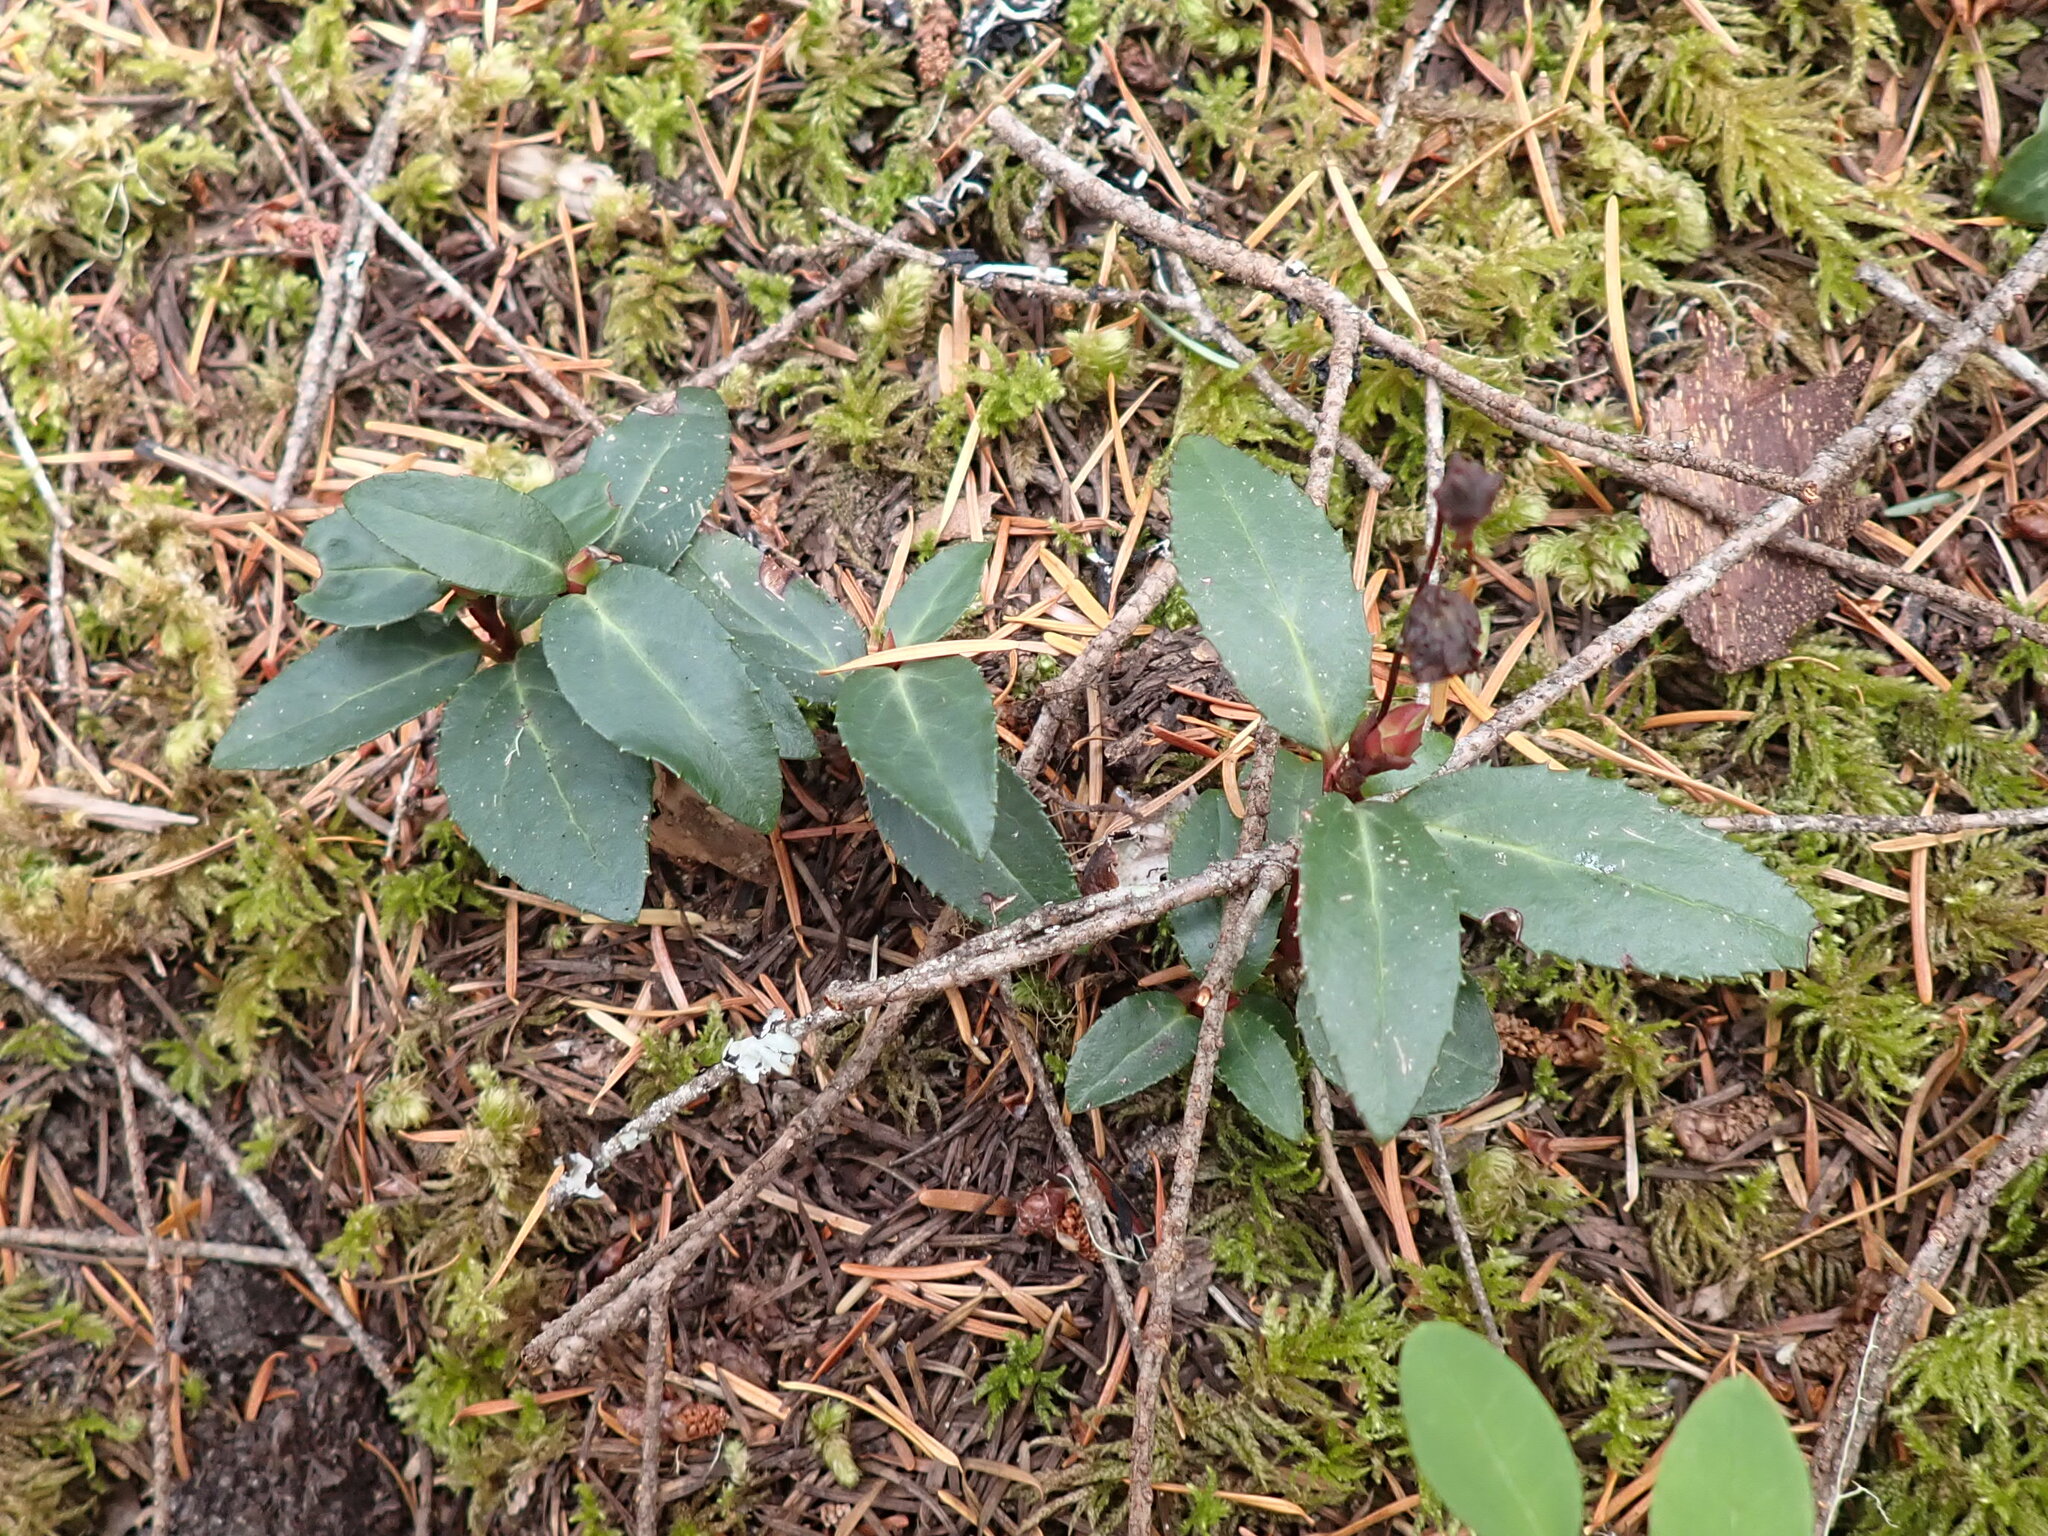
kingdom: Plantae
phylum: Tracheophyta
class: Magnoliopsida
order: Ericales
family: Ericaceae
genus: Chimaphila
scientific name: Chimaphila menziesii
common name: Menzies' pipsissewa
